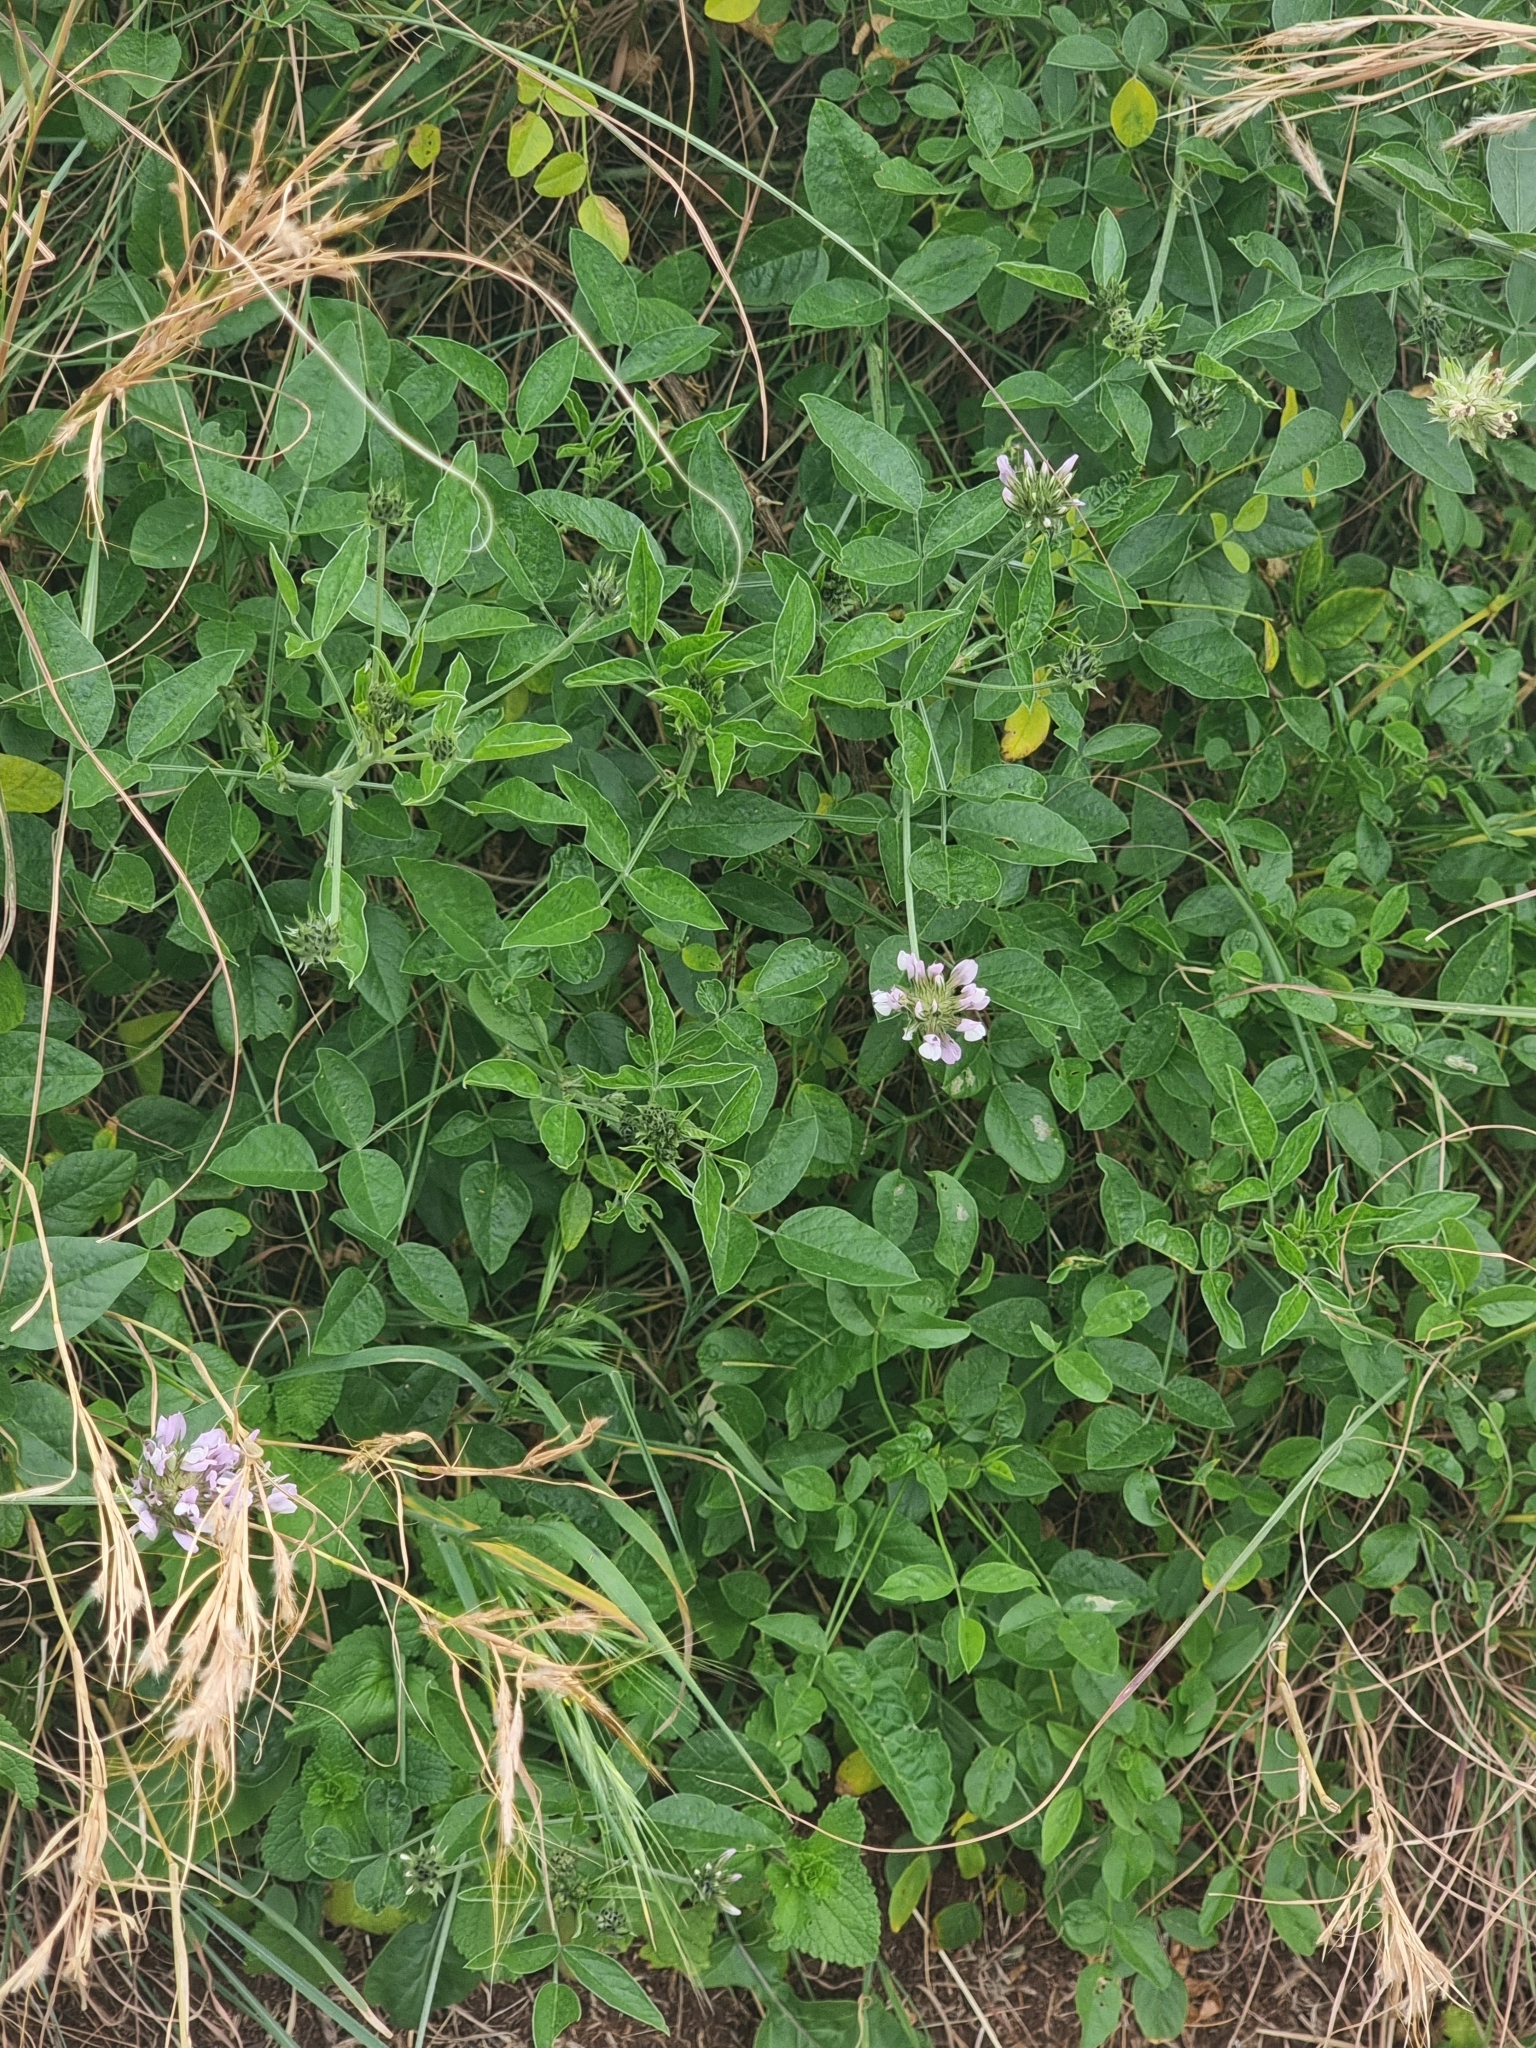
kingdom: Plantae
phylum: Tracheophyta
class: Magnoliopsida
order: Fabales
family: Fabaceae
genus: Bituminaria
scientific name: Bituminaria bituminosa
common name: Arabian pea
